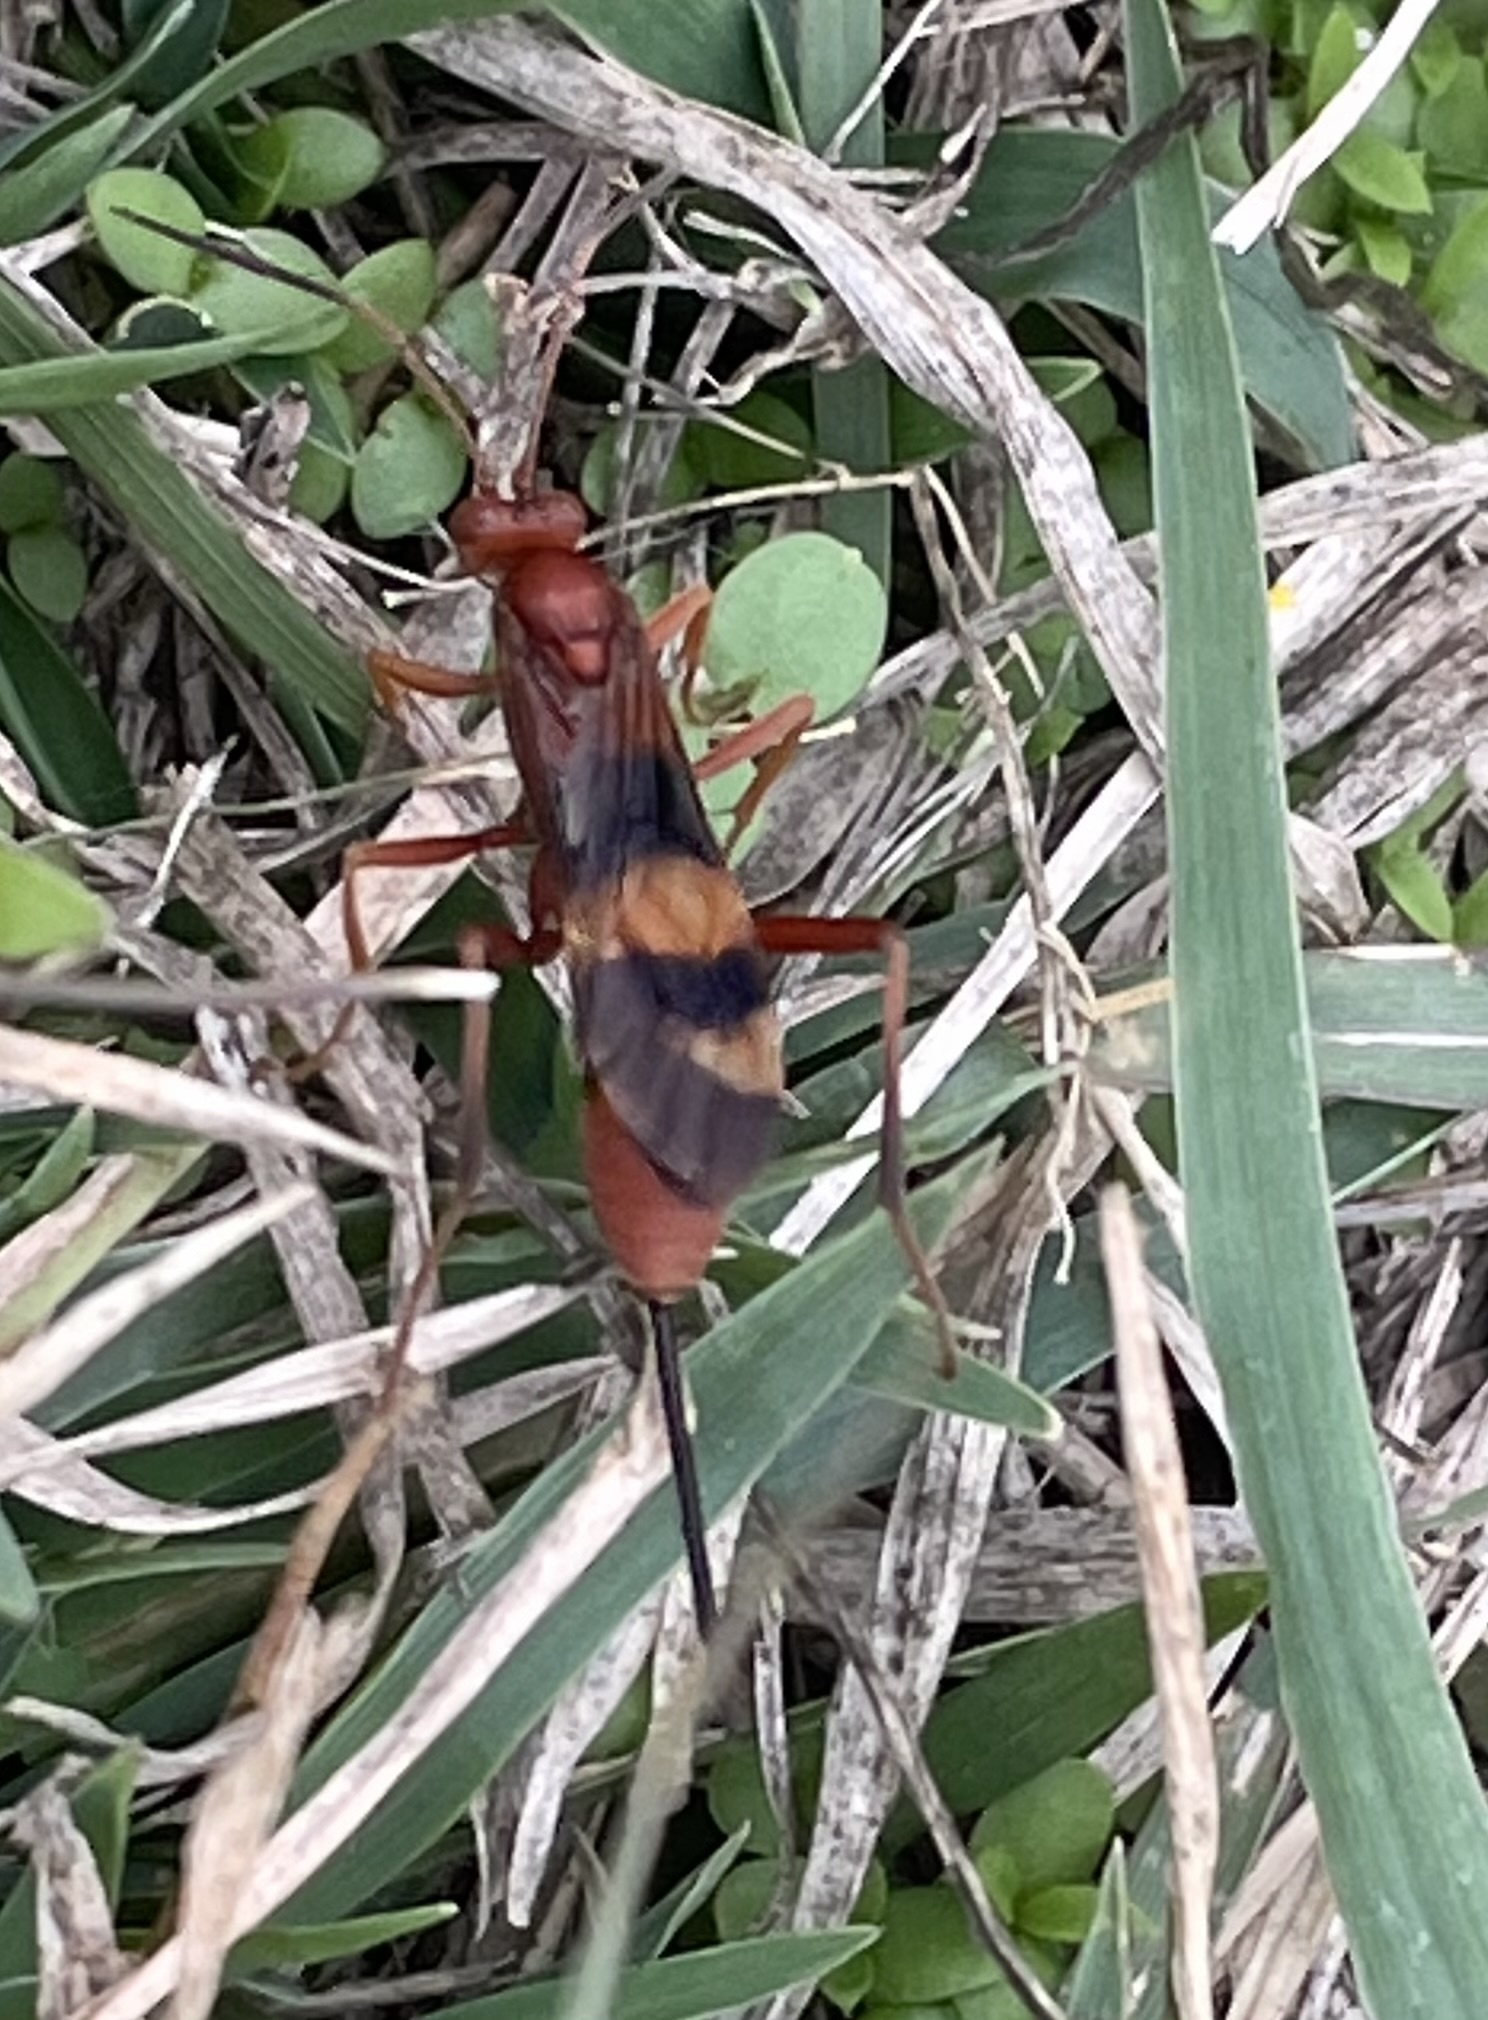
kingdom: Animalia
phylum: Arthropoda
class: Insecta
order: Hymenoptera
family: Ichneumonidae
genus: Compsocryptus
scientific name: Compsocryptus texensis
